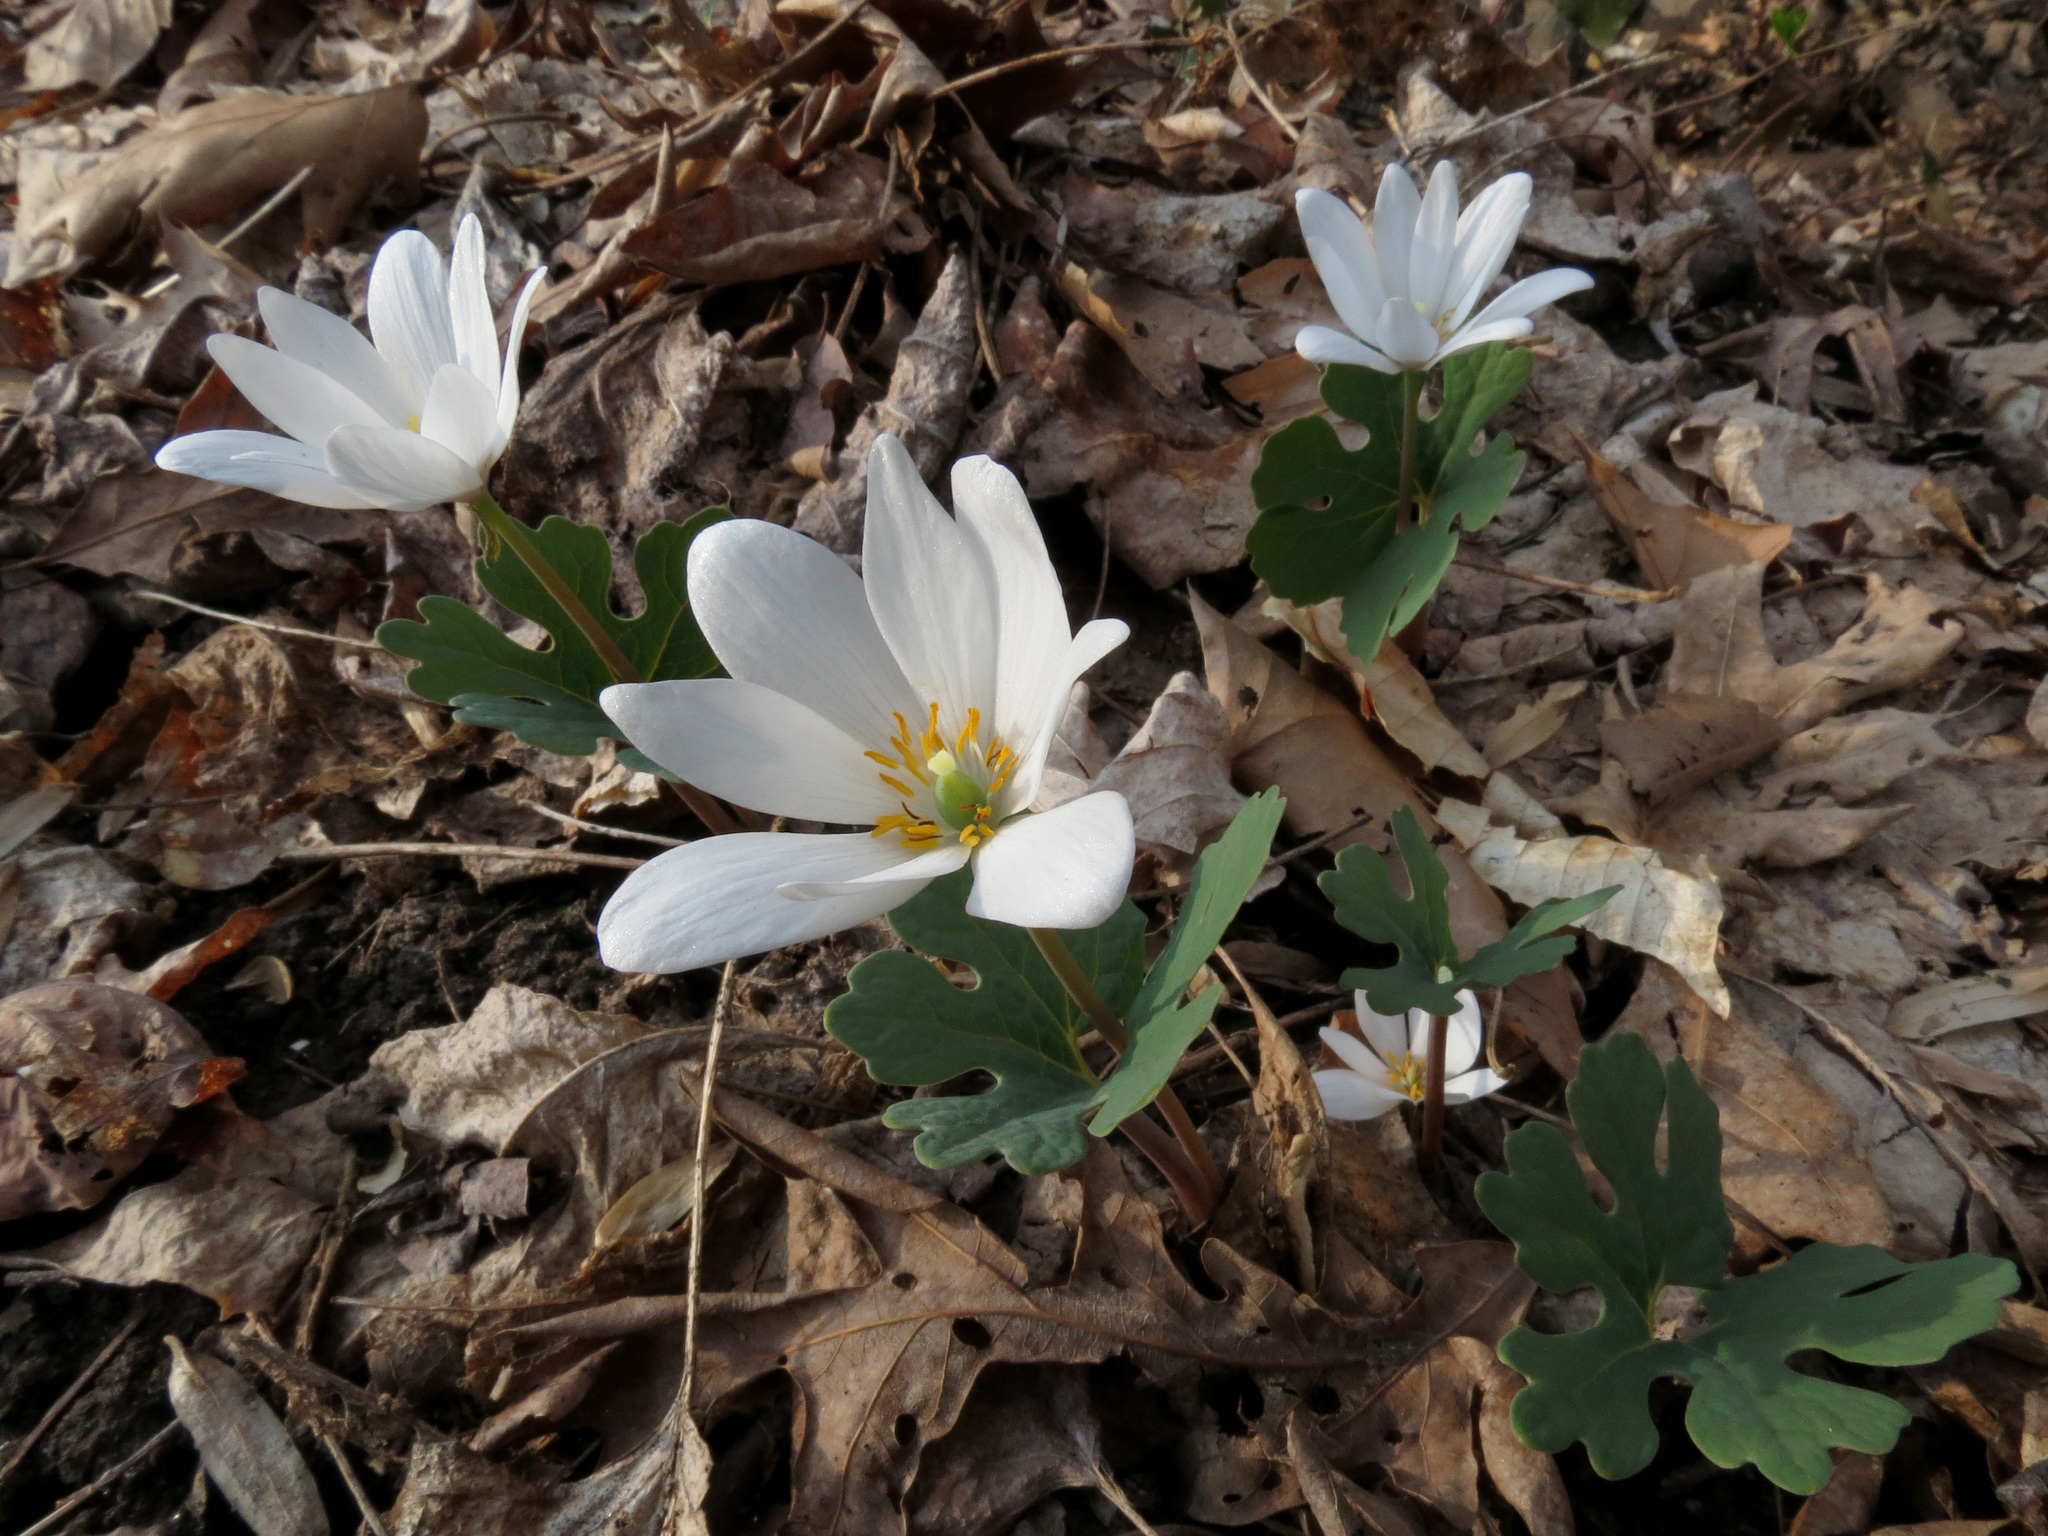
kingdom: Plantae
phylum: Tracheophyta
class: Magnoliopsida
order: Ranunculales
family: Papaveraceae
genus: Sanguinaria
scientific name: Sanguinaria canadensis
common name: Bloodroot
